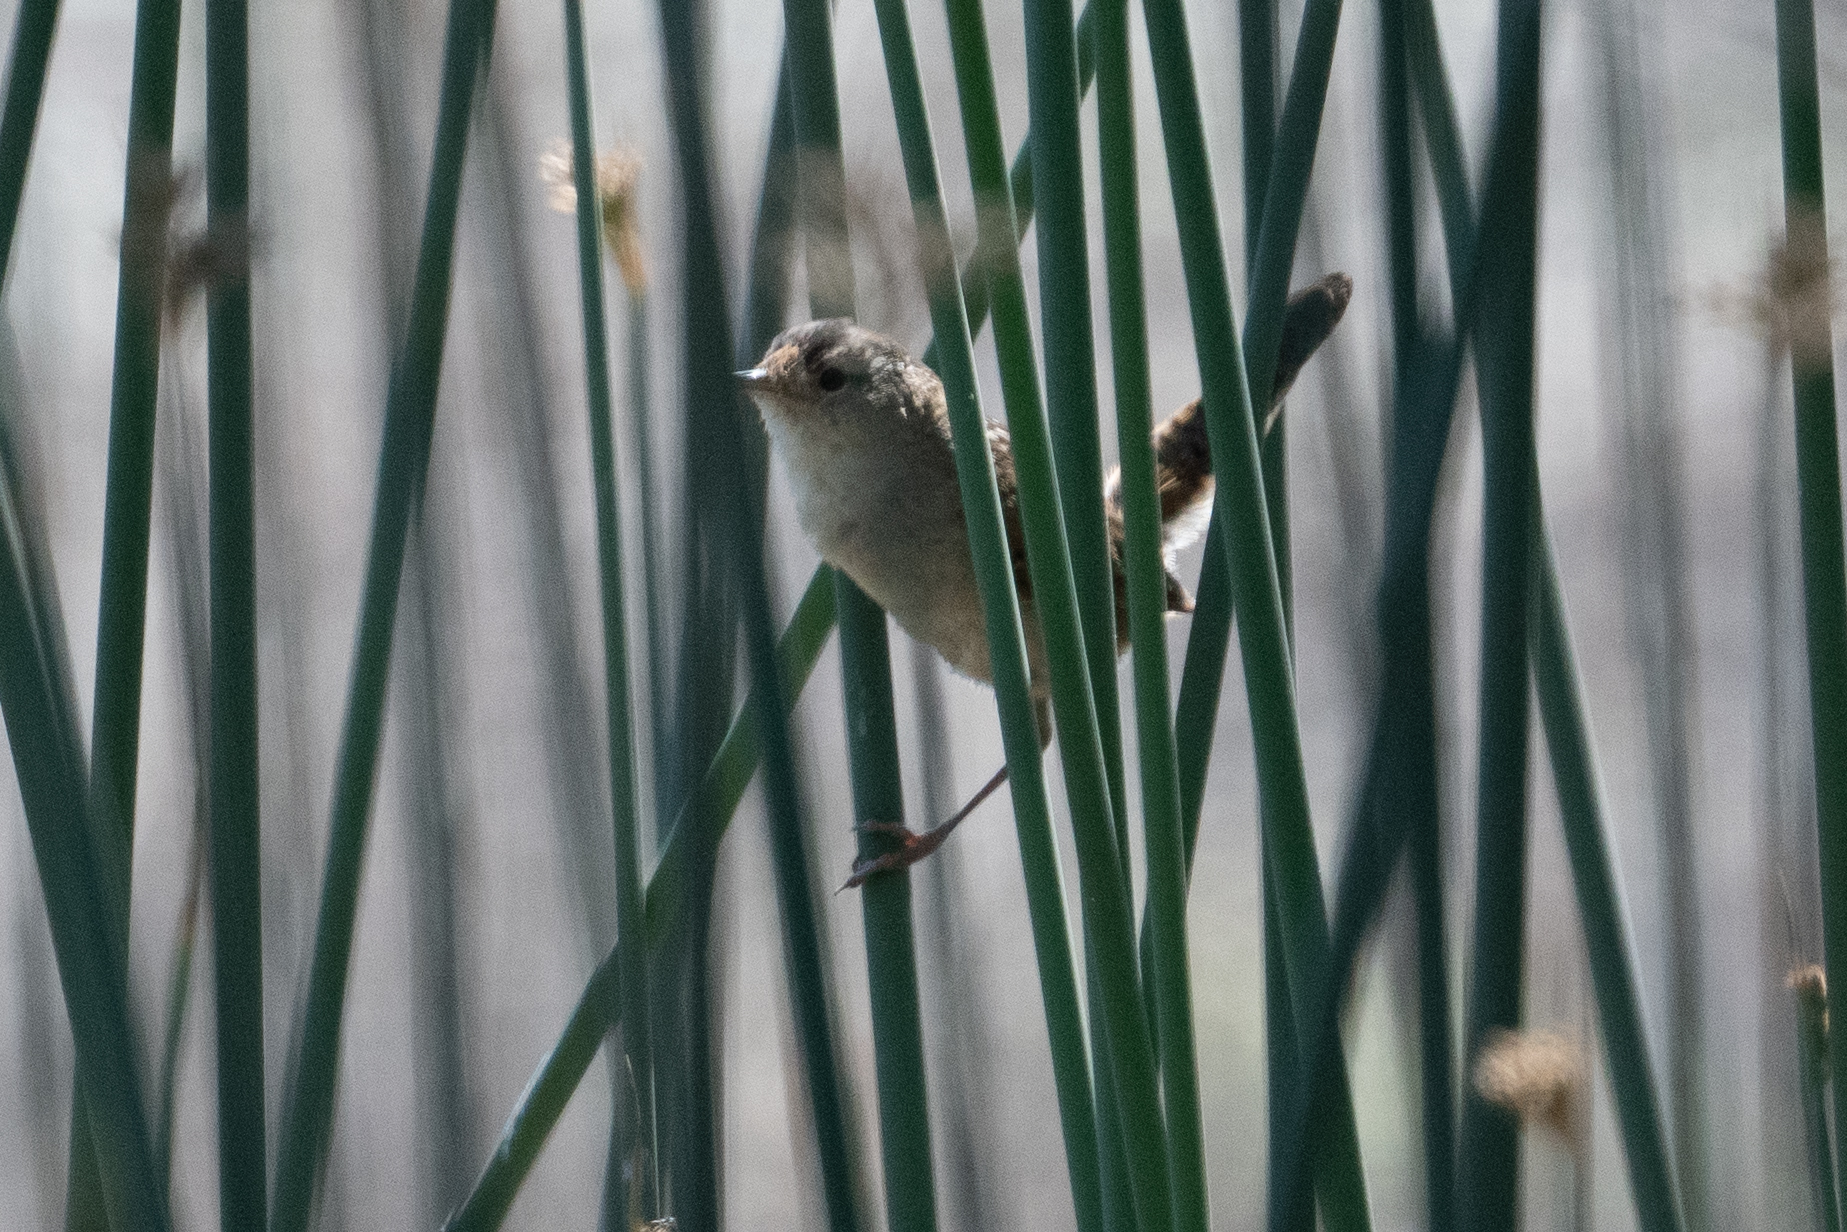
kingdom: Animalia
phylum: Chordata
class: Aves
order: Passeriformes
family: Troglodytidae
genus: Cistothorus
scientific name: Cistothorus palustris
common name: Marsh wren
